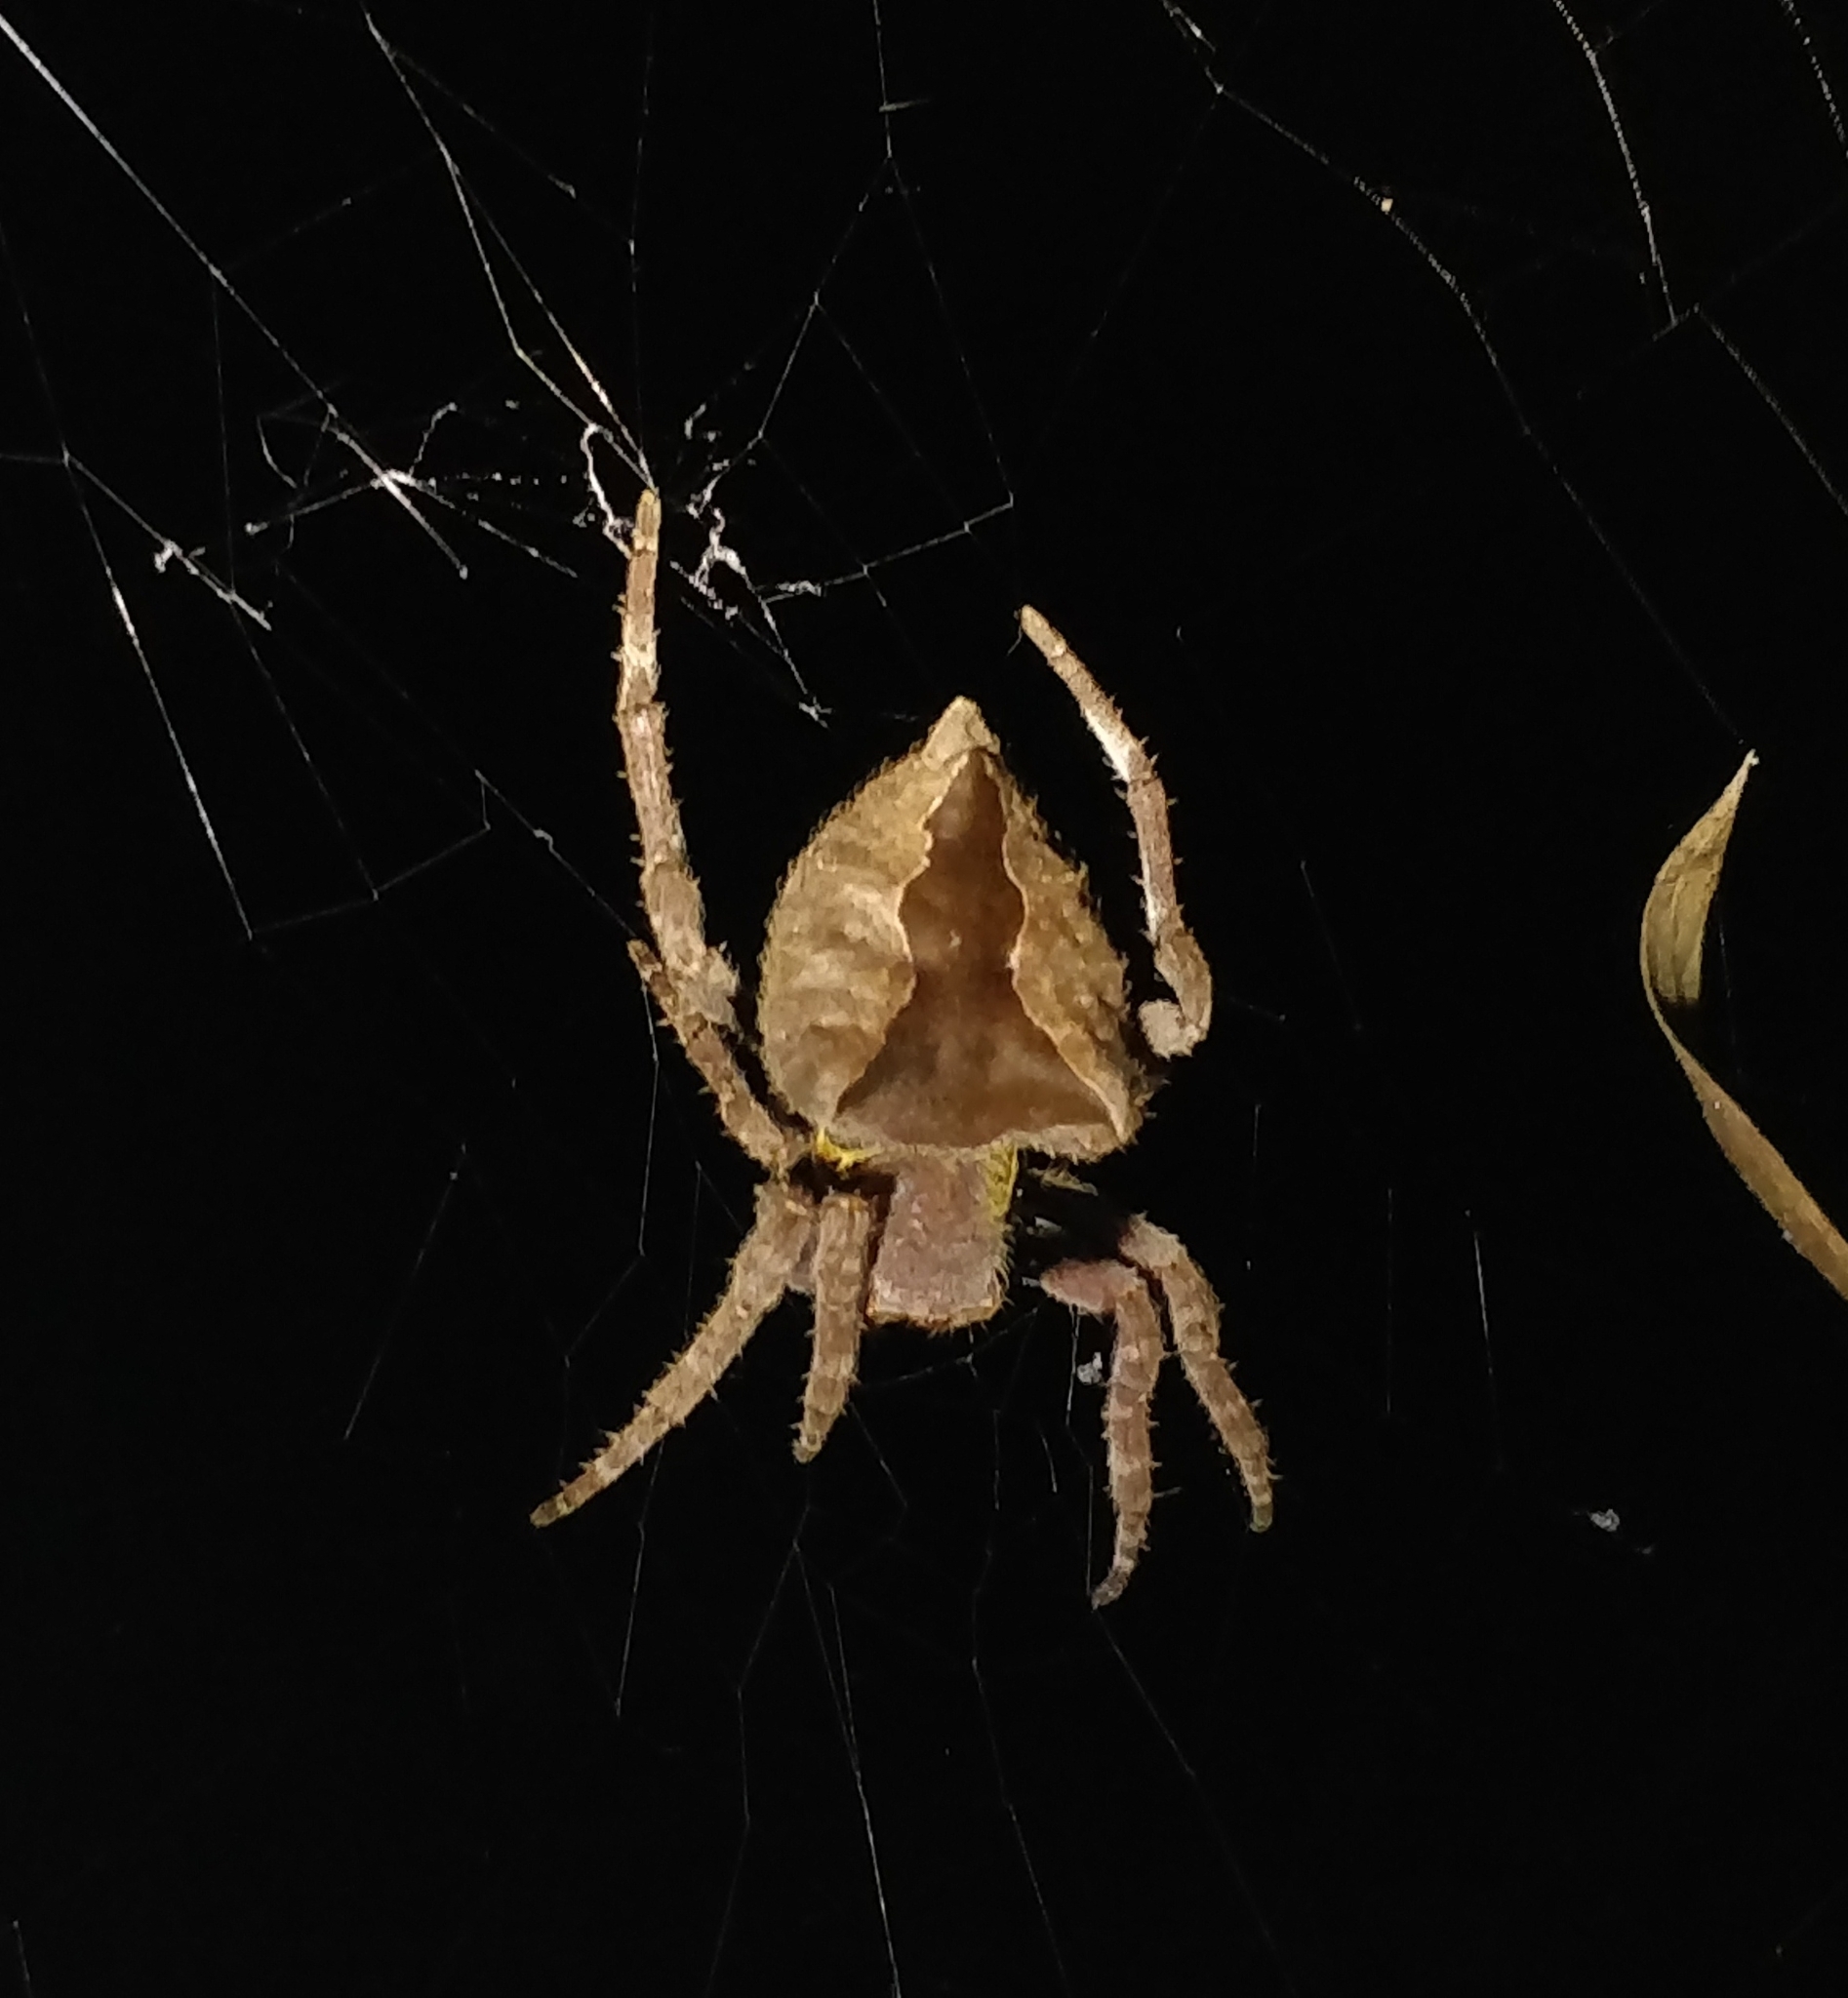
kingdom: Animalia
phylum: Arthropoda
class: Arachnida
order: Araneae
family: Araneidae
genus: Parawixia
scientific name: Parawixia dehaani
